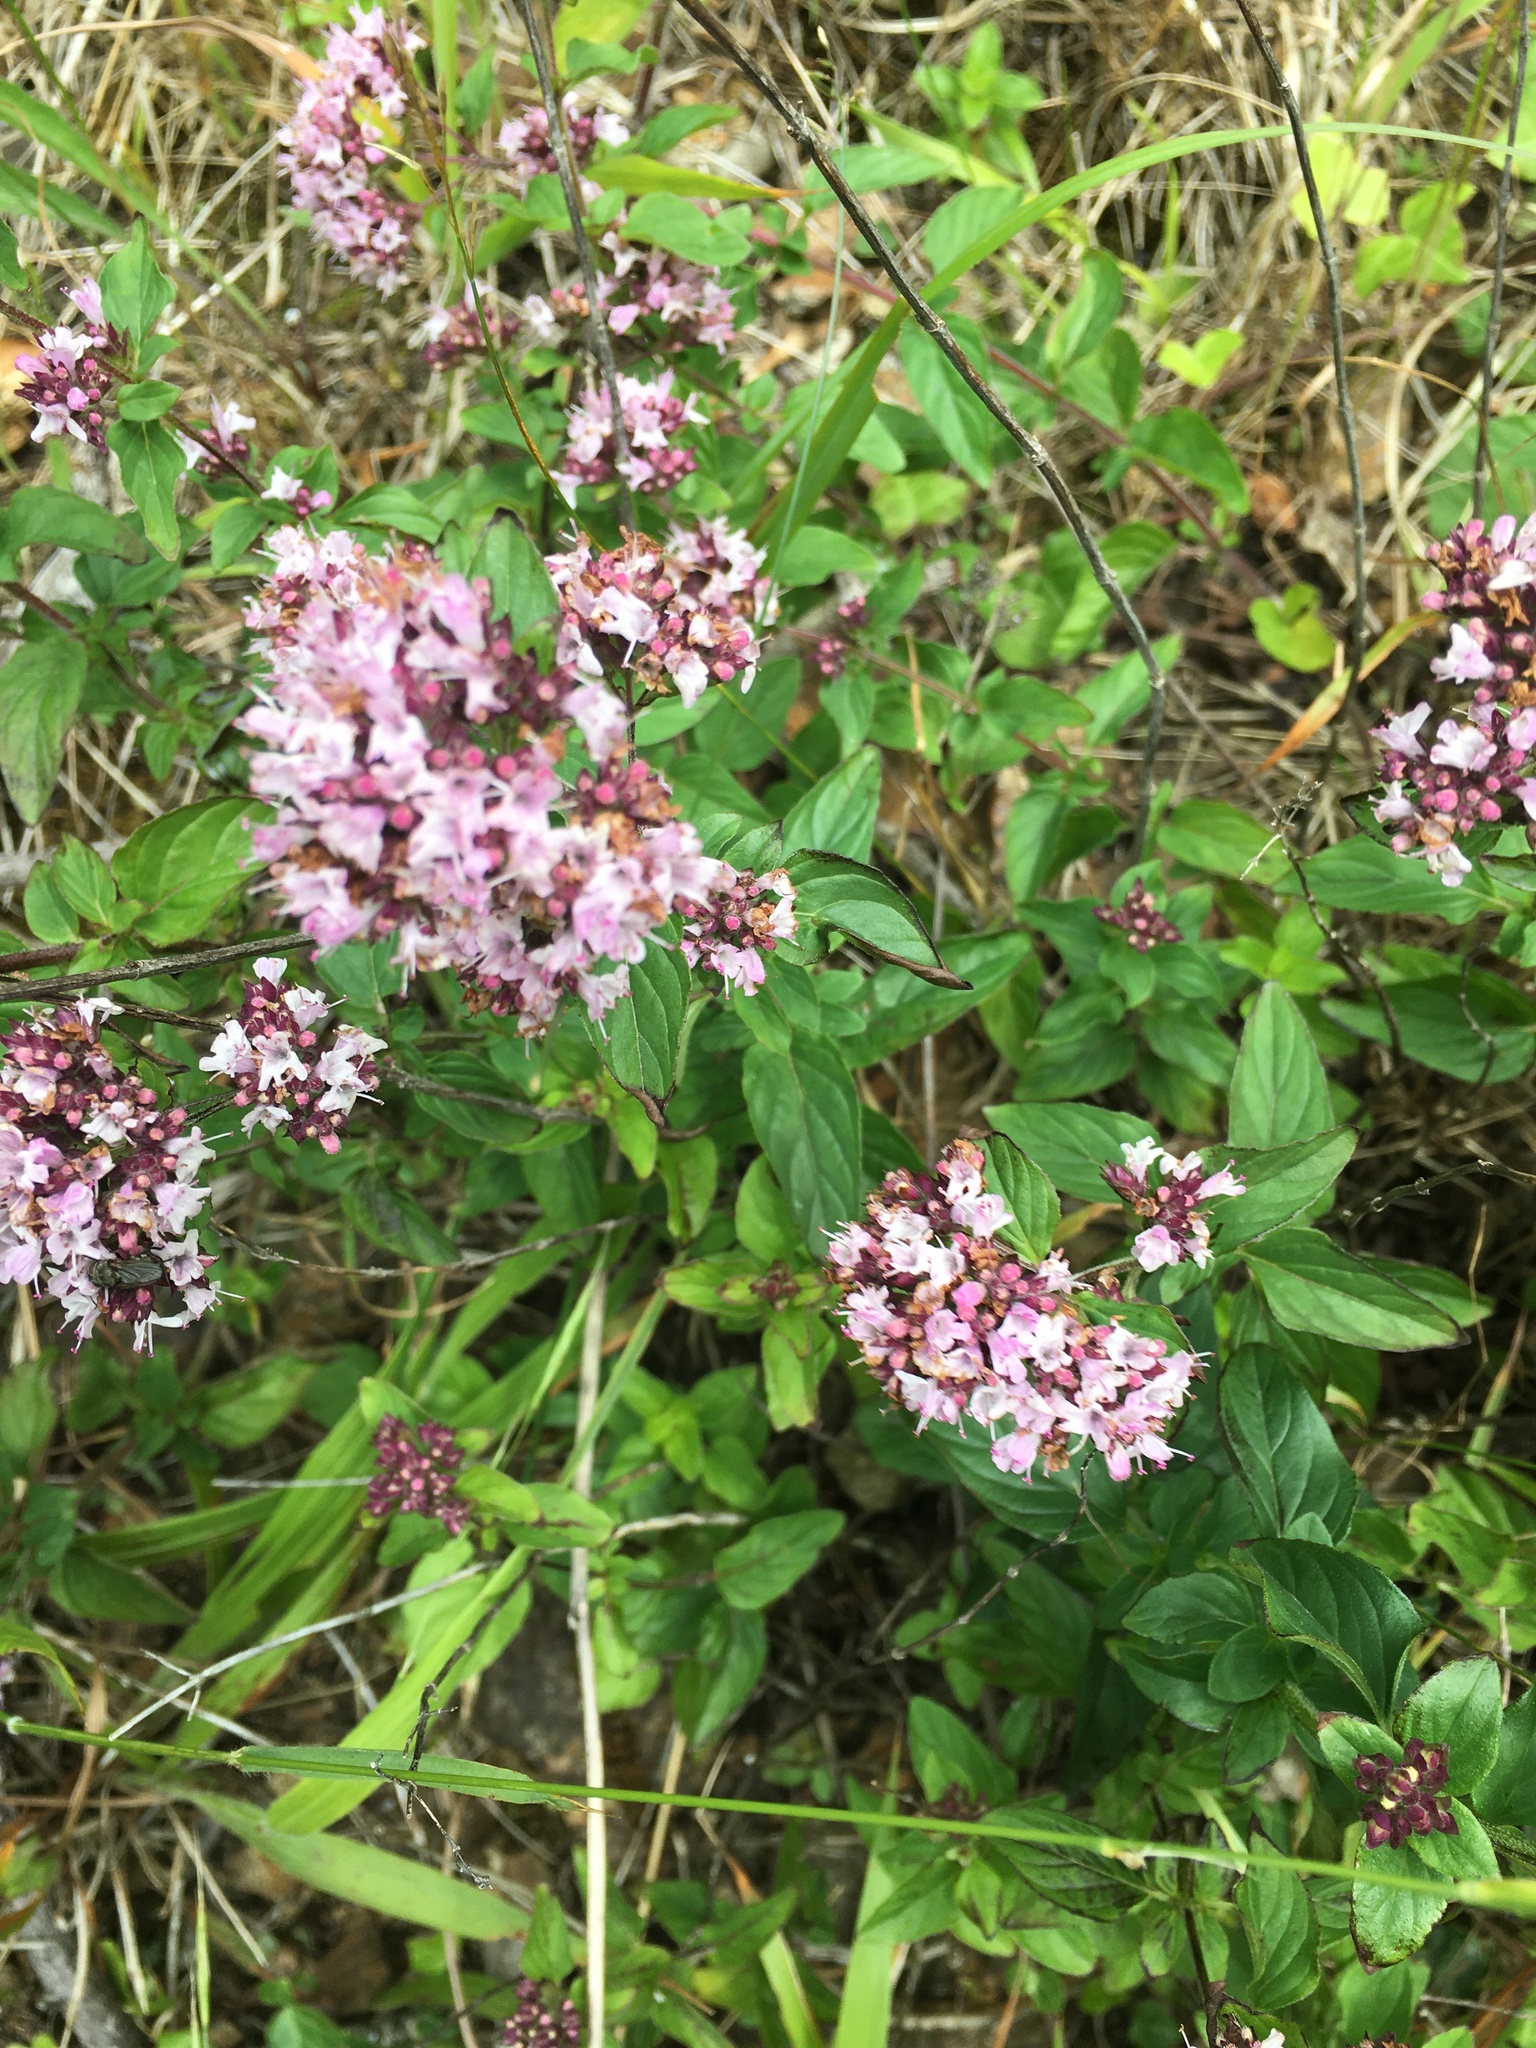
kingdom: Plantae
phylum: Tracheophyta
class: Magnoliopsida
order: Lamiales
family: Lamiaceae
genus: Origanum
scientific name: Origanum vulgare
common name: Wild marjoram
